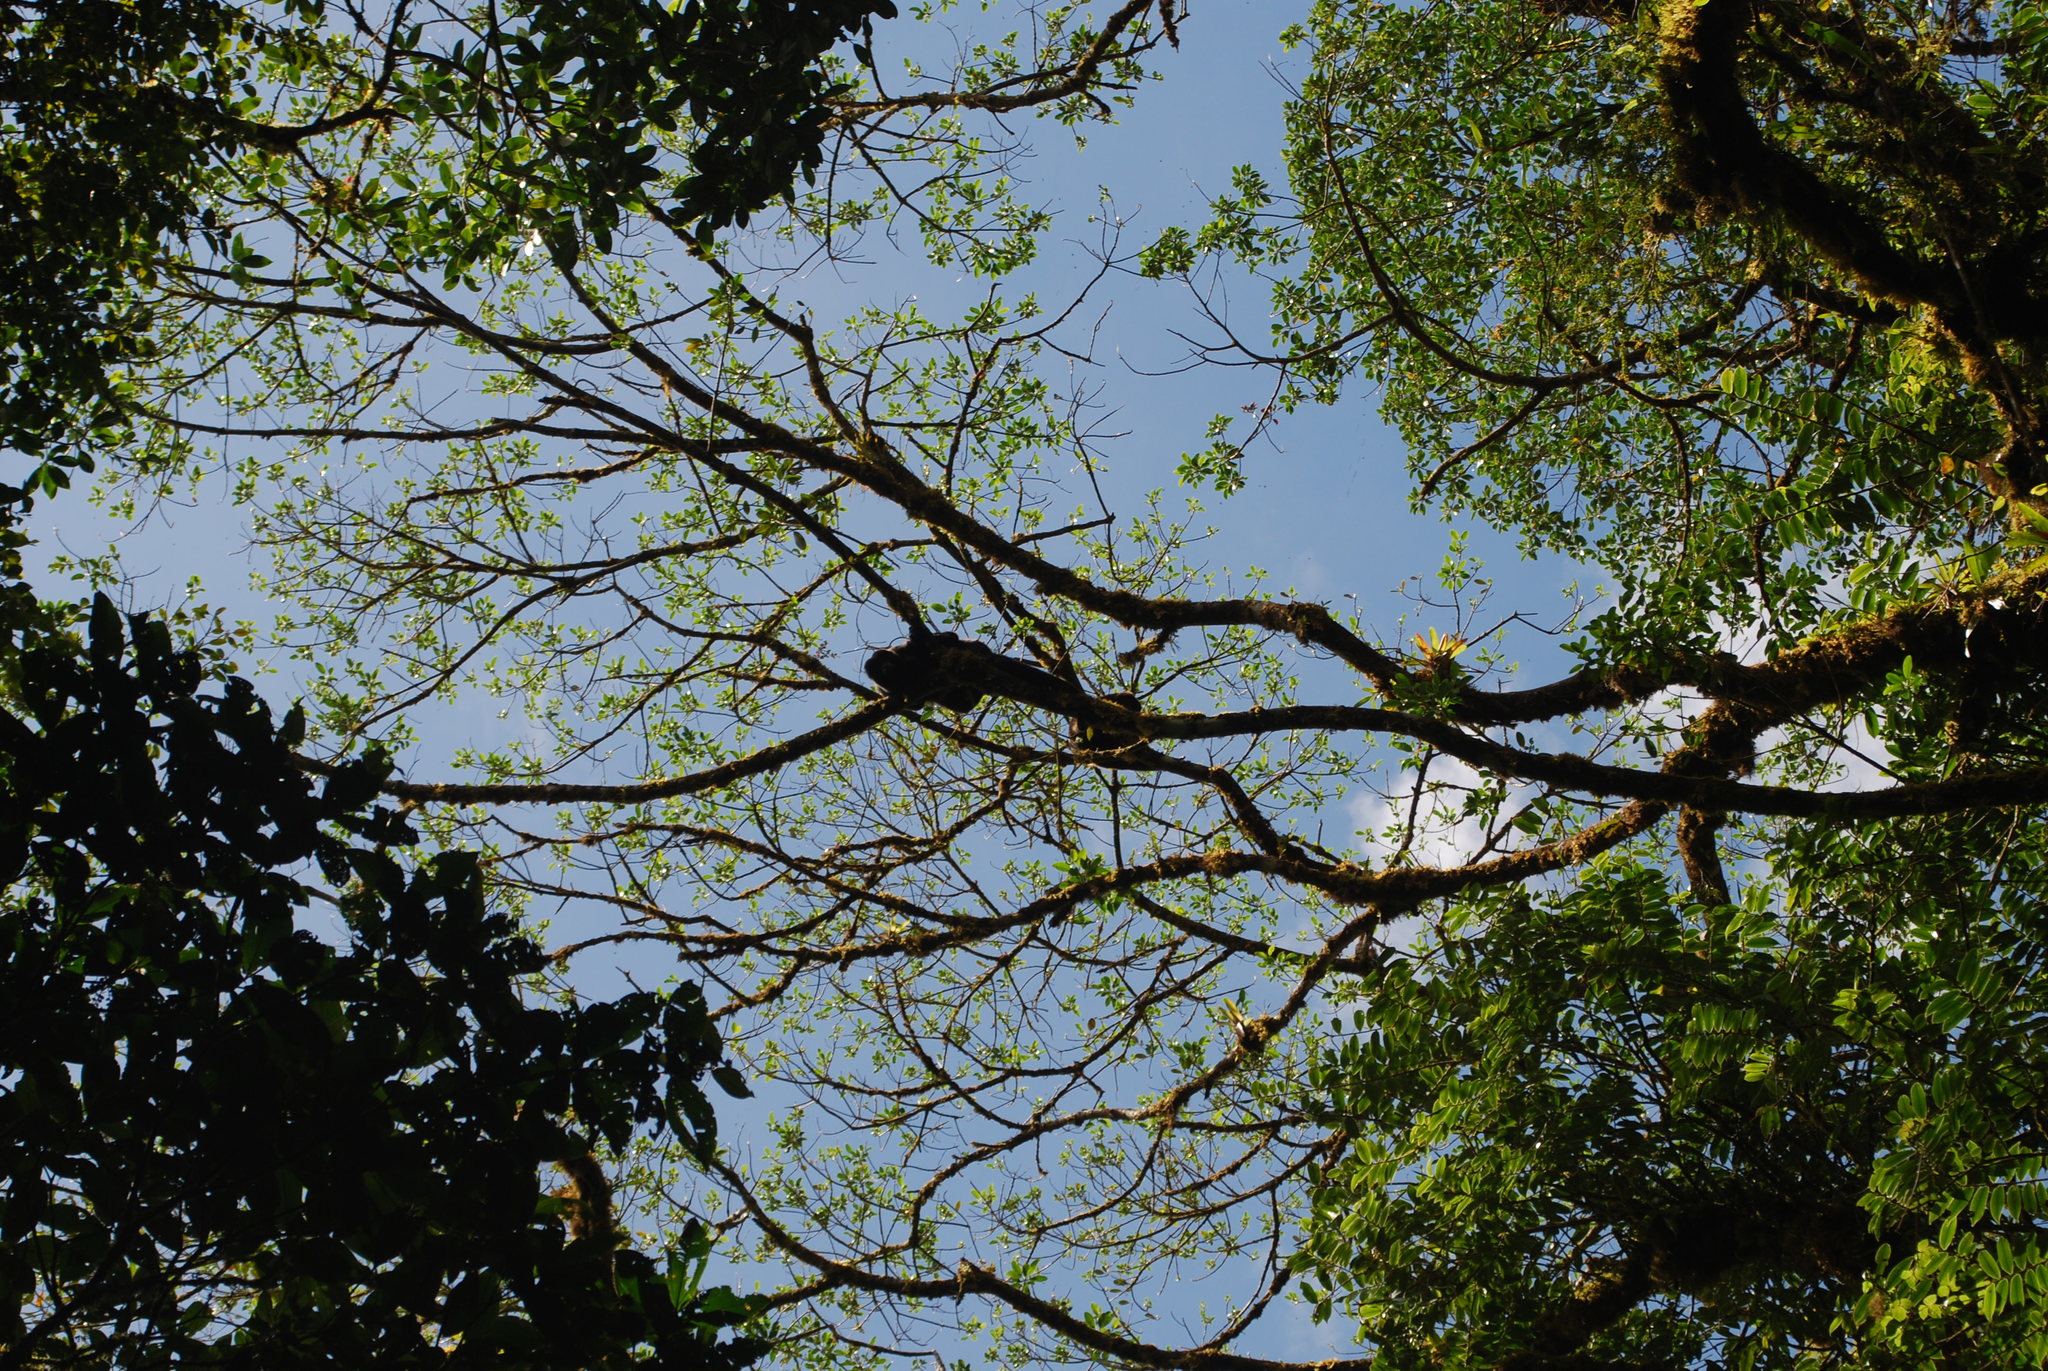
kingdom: Animalia
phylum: Chordata
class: Mammalia
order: Primates
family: Atelidae
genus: Alouatta
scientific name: Alouatta palliata
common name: Mantled howler
